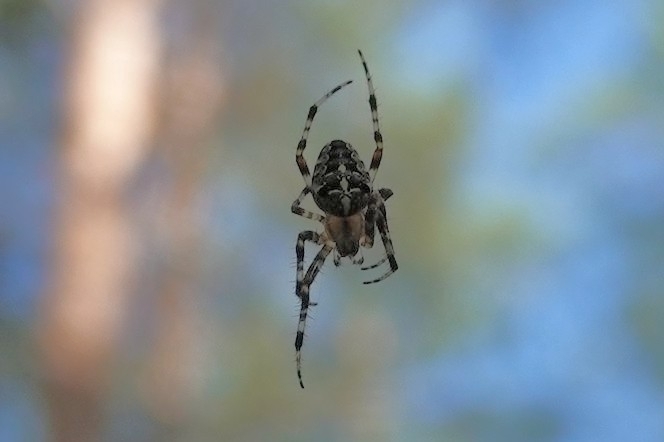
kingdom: Animalia
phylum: Arthropoda
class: Arachnida
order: Araneae
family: Araneidae
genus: Araneus
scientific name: Araneus diadematus
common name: Cross orbweaver
